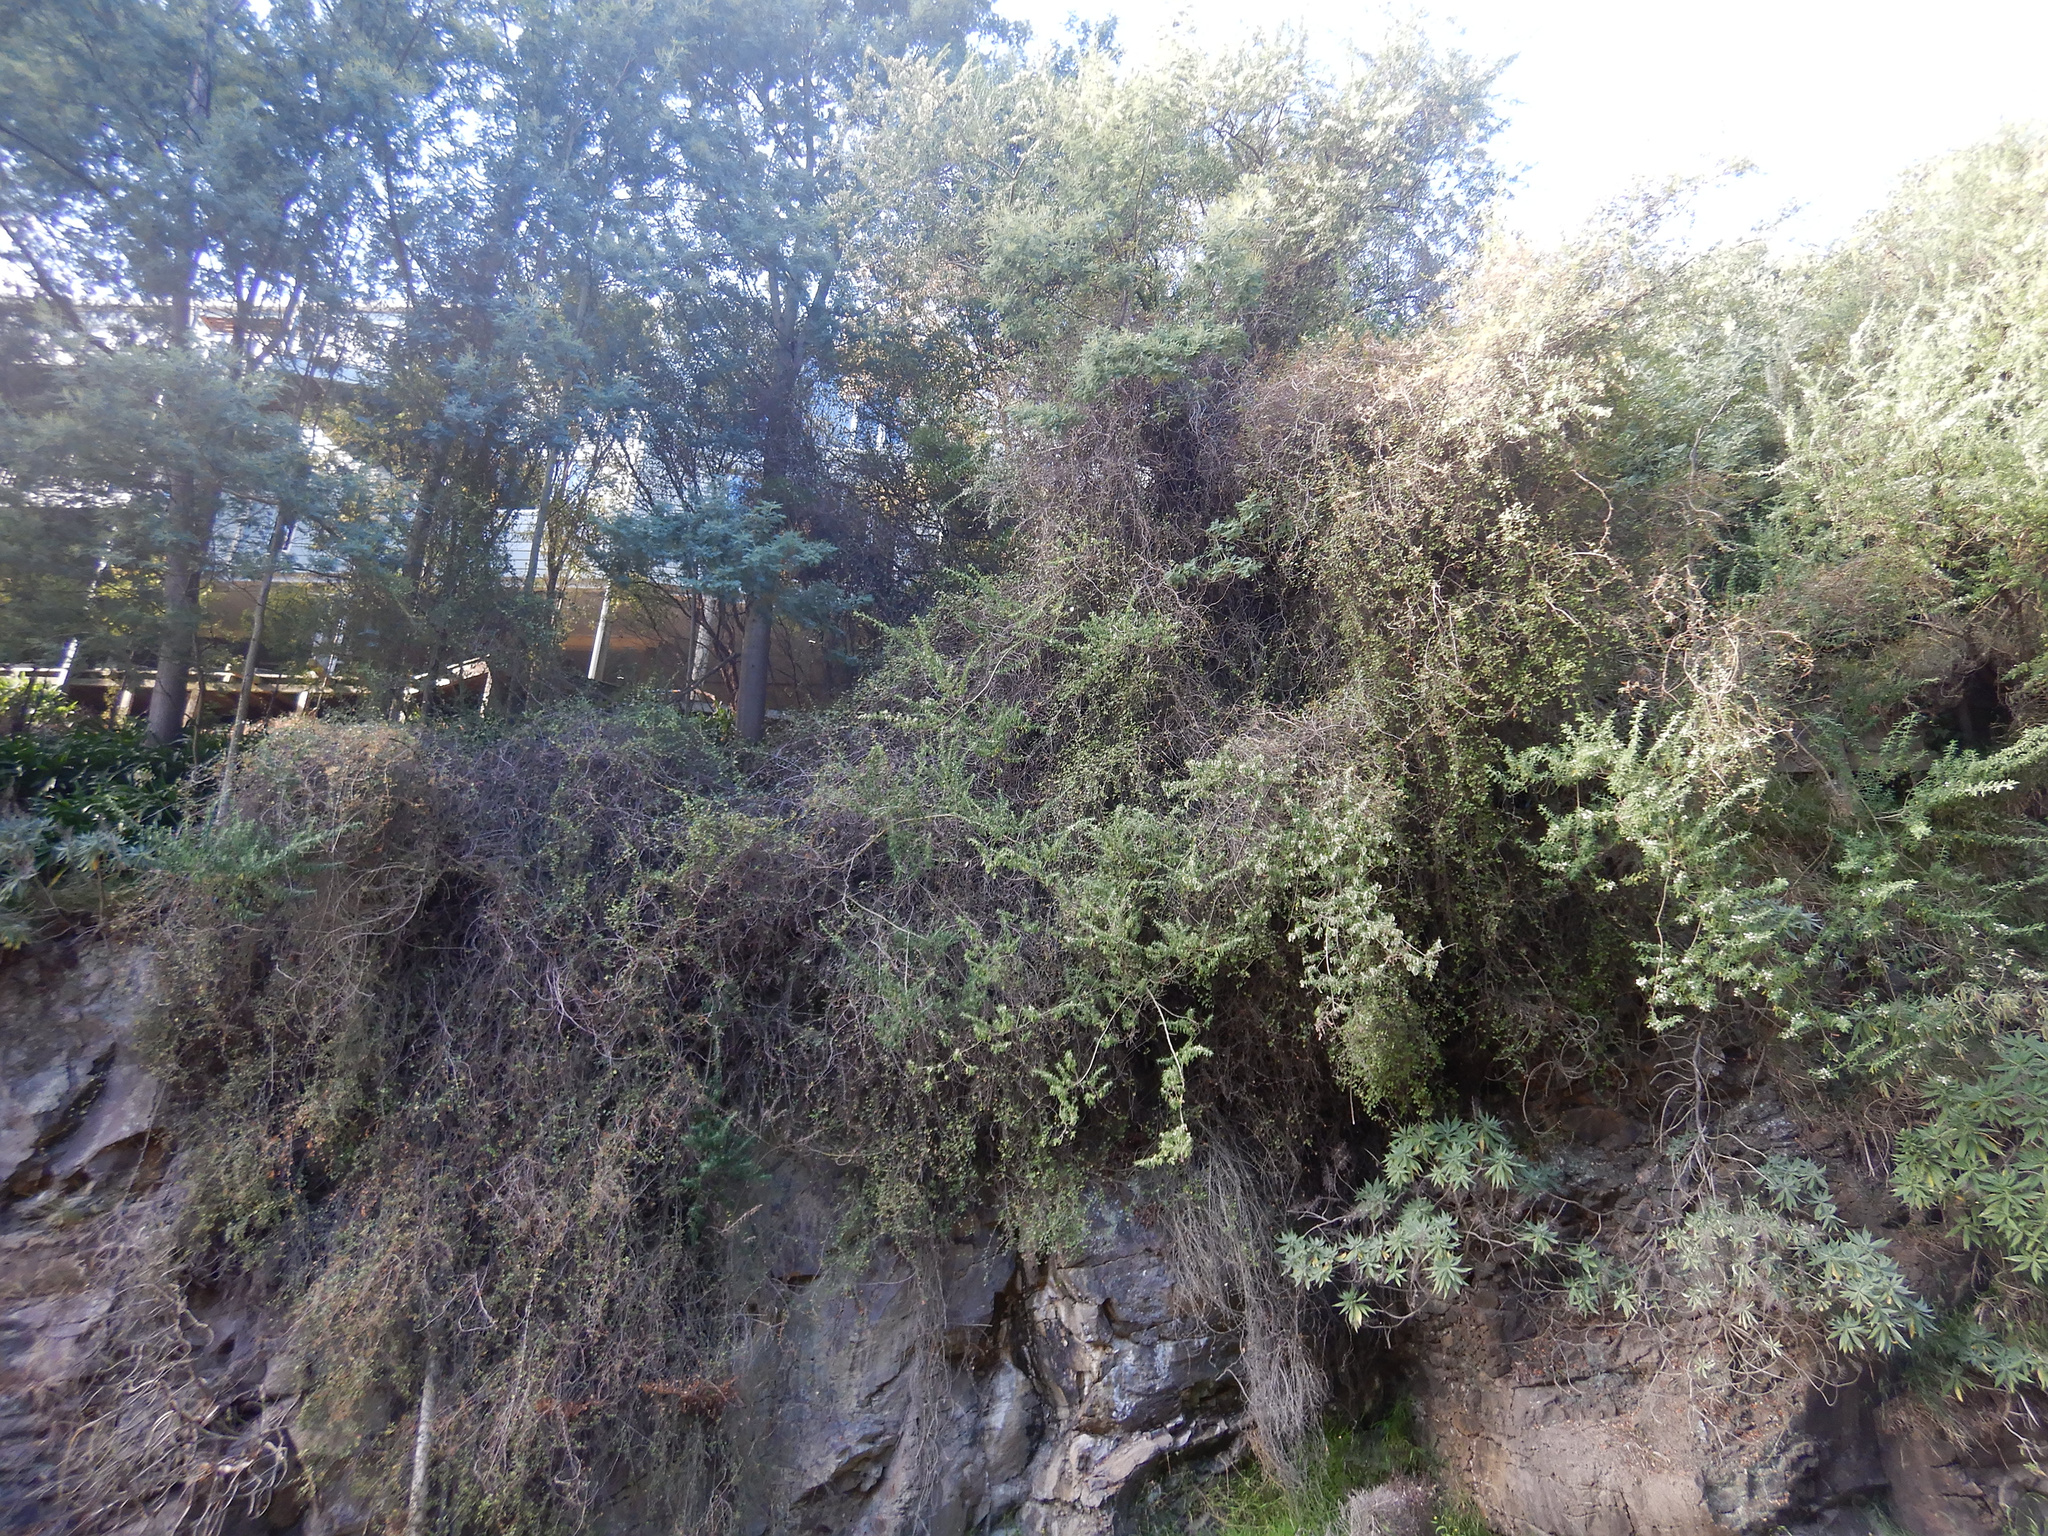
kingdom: Plantae
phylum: Tracheophyta
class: Magnoliopsida
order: Caryophyllales
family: Polygonaceae
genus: Muehlenbeckia
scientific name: Muehlenbeckia complexa
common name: Wireplant
